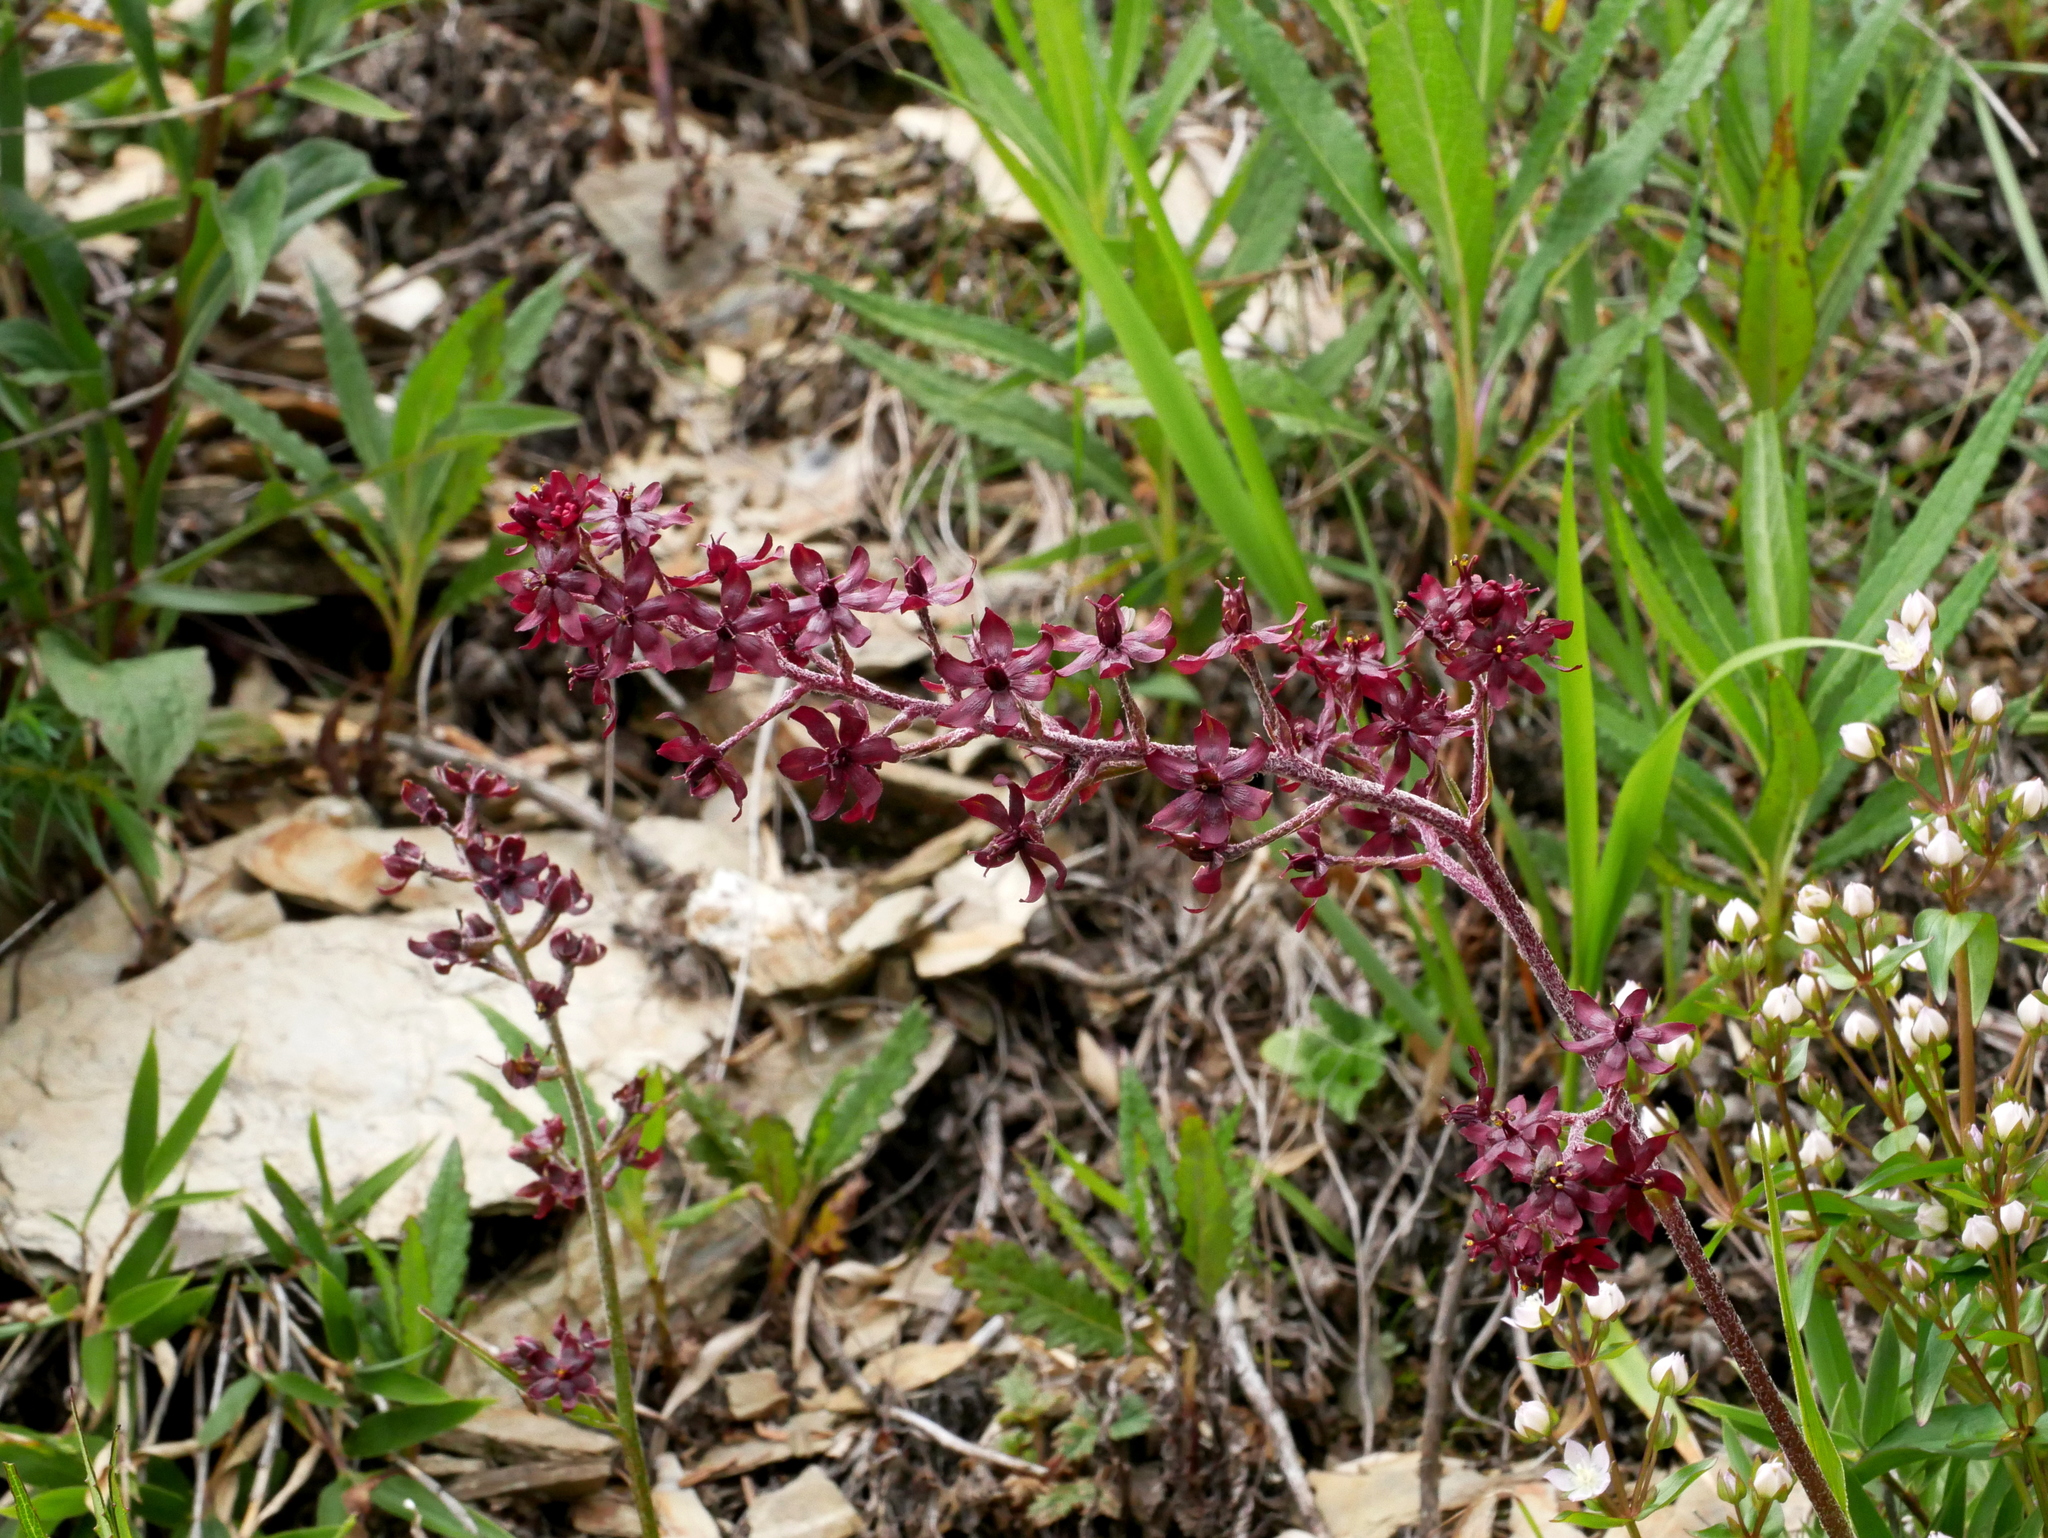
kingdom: Plantae
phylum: Tracheophyta
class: Liliopsida
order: Liliales
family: Melanthiaceae
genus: Veratrum
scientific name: Veratrum formosanum
